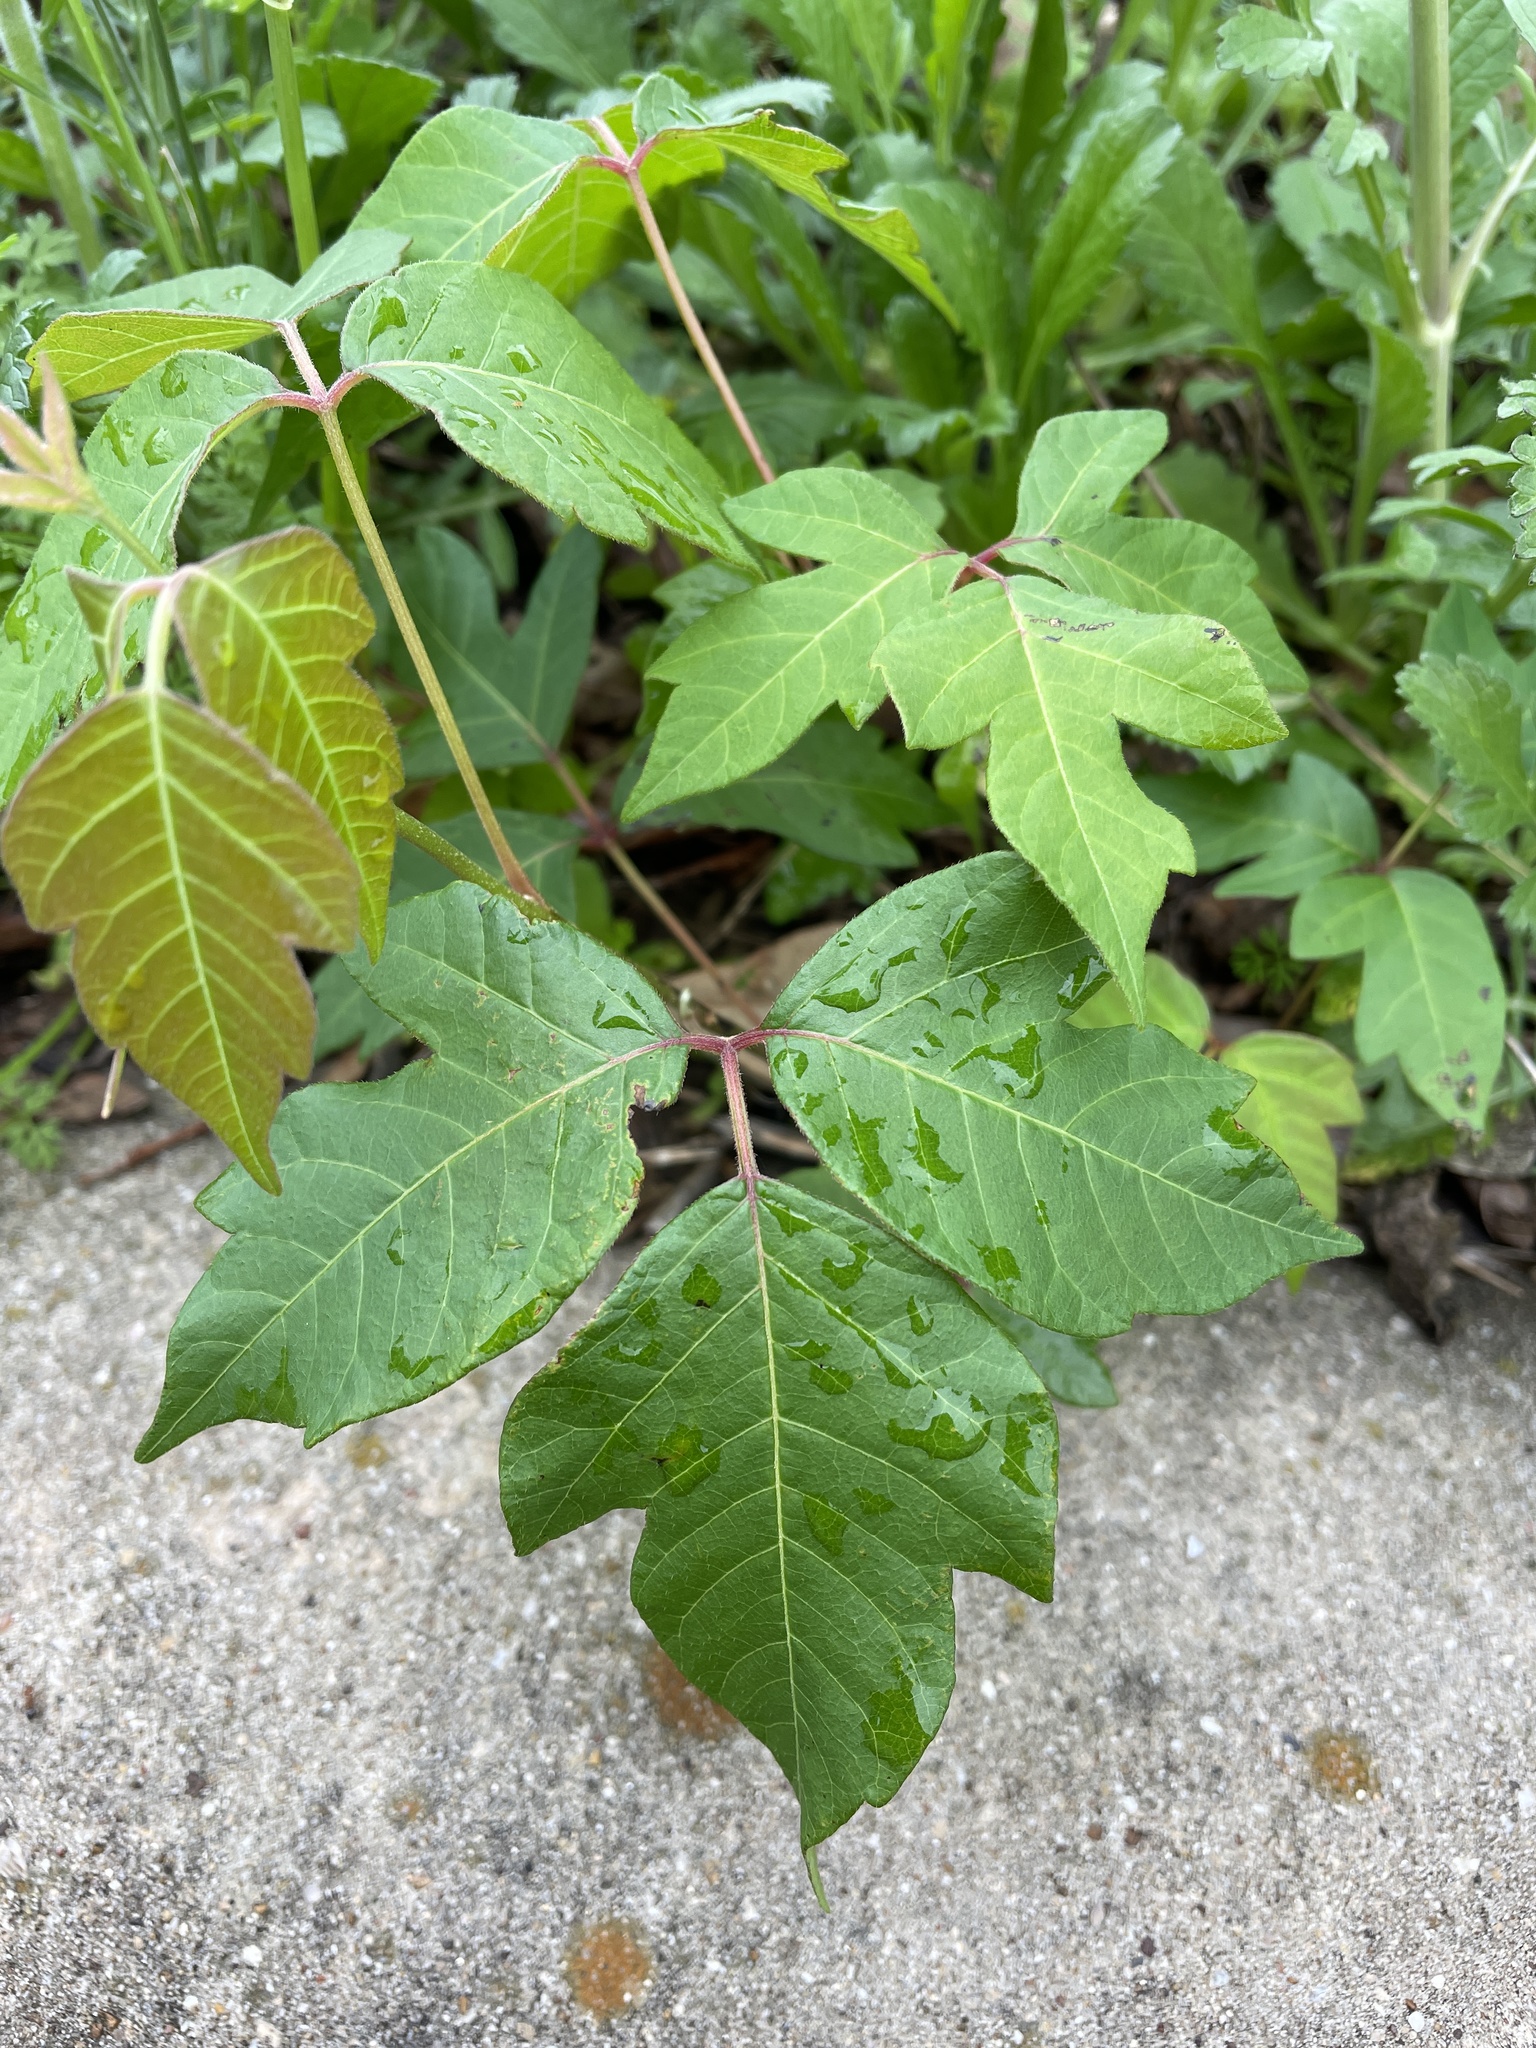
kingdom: Plantae
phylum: Tracheophyta
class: Magnoliopsida
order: Sapindales
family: Anacardiaceae
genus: Toxicodendron
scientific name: Toxicodendron radicans
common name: Poison ivy
